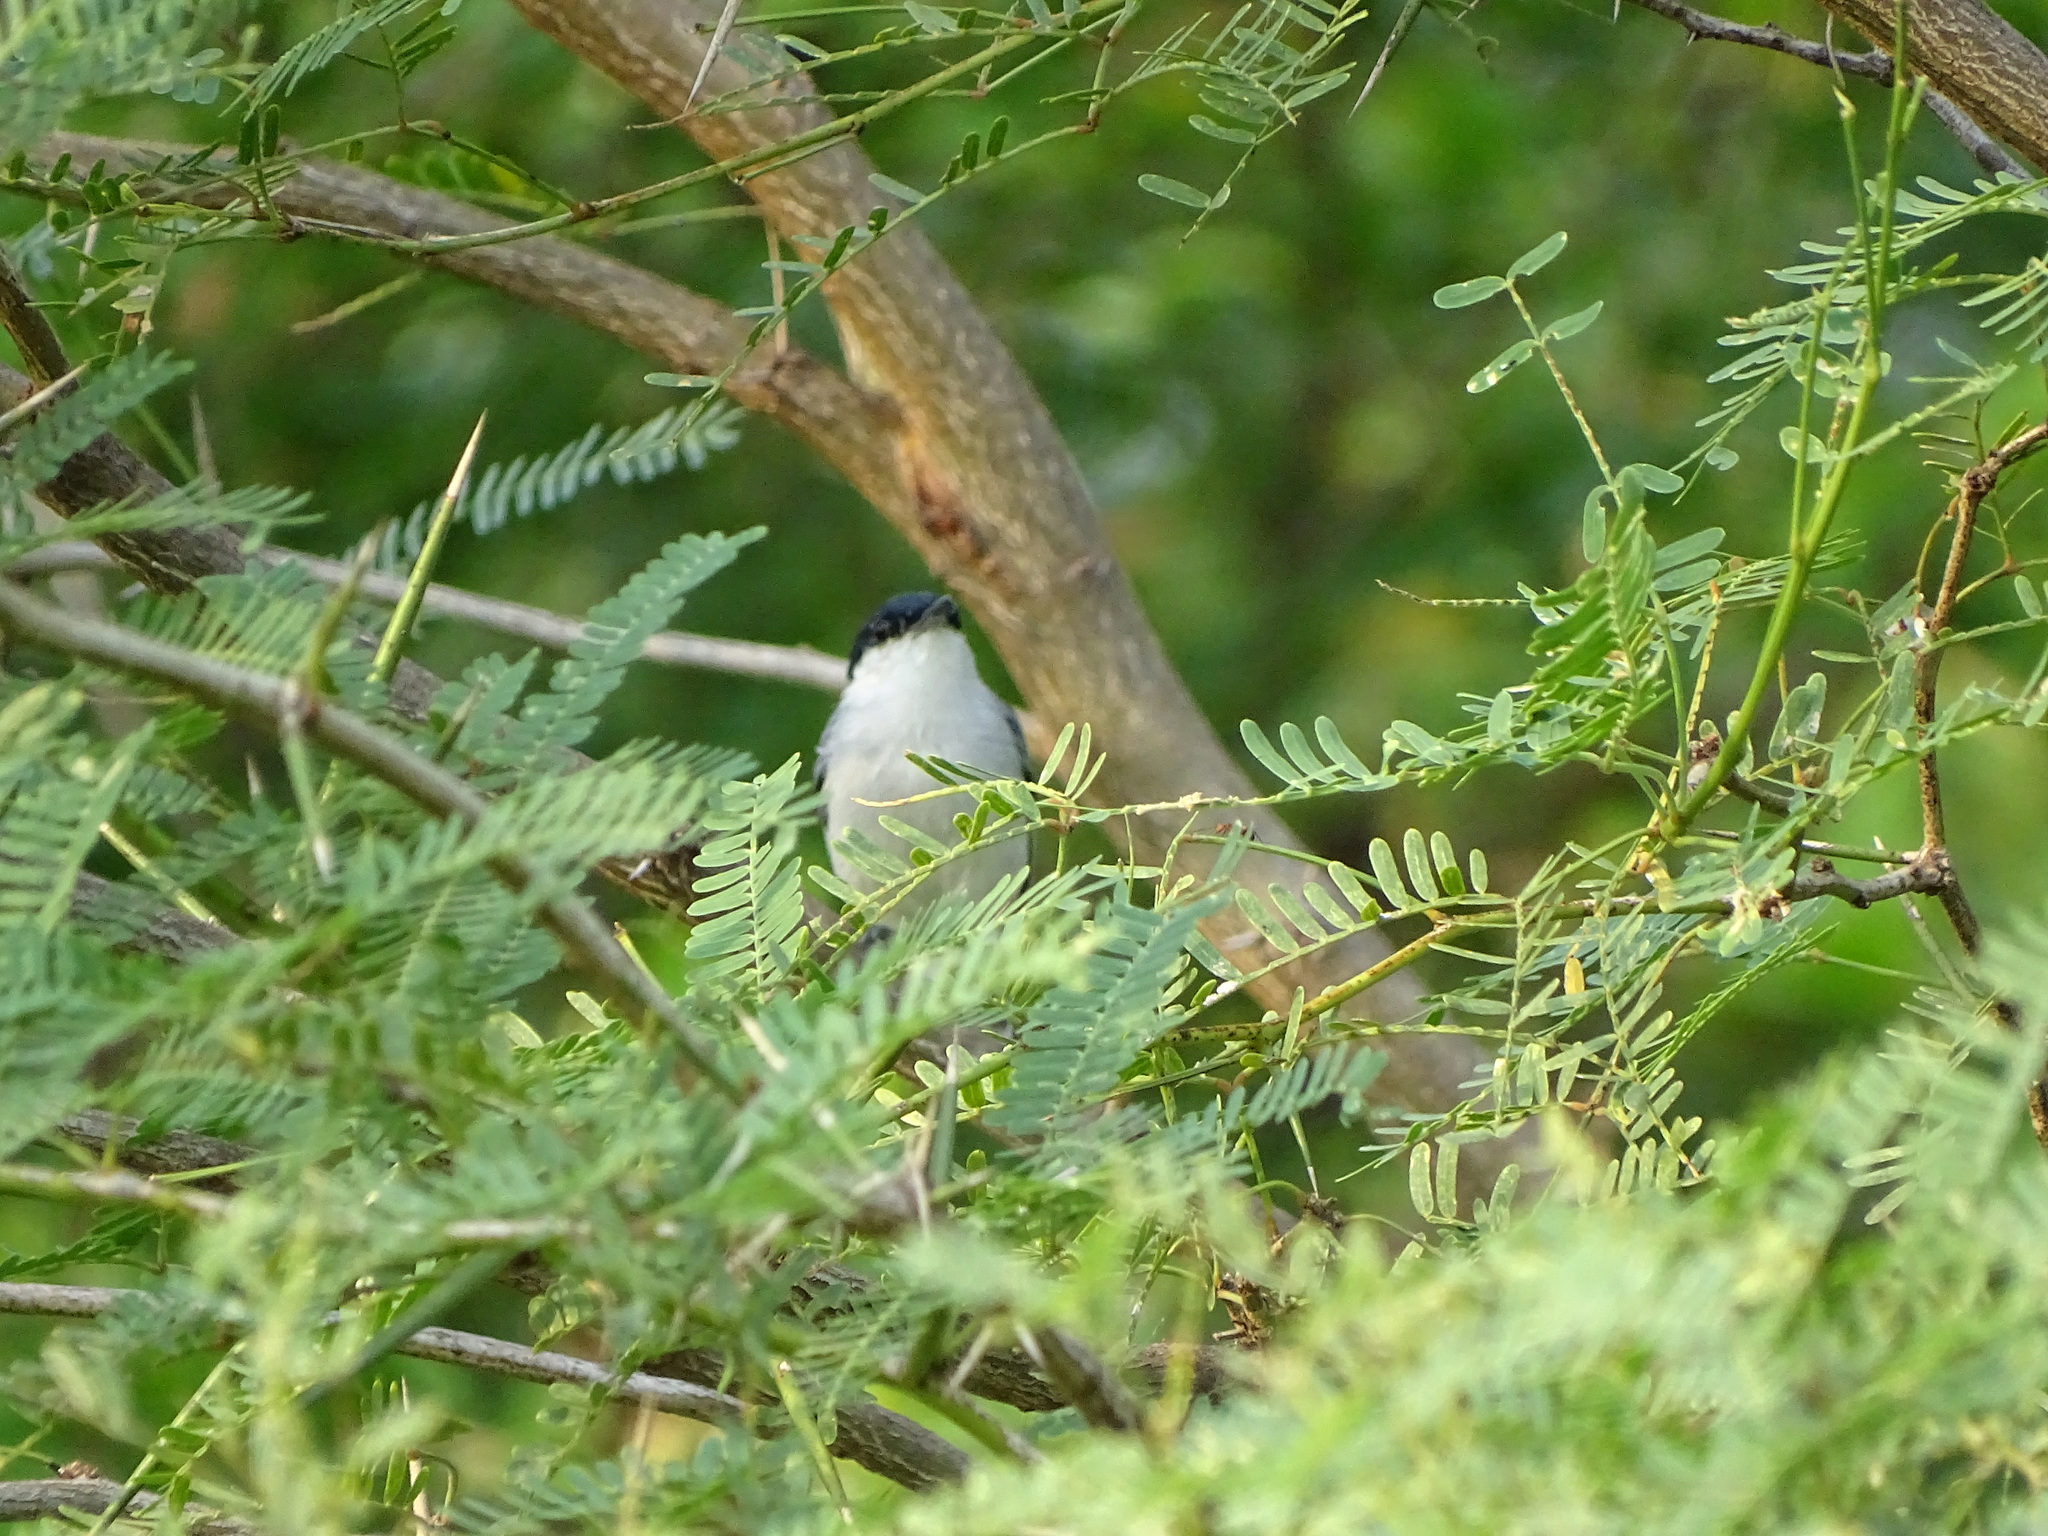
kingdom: Animalia
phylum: Chordata
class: Aves
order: Passeriformes
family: Polioptilidae
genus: Polioptila
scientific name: Polioptila albiloris
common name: White-lored gnatcatcher
